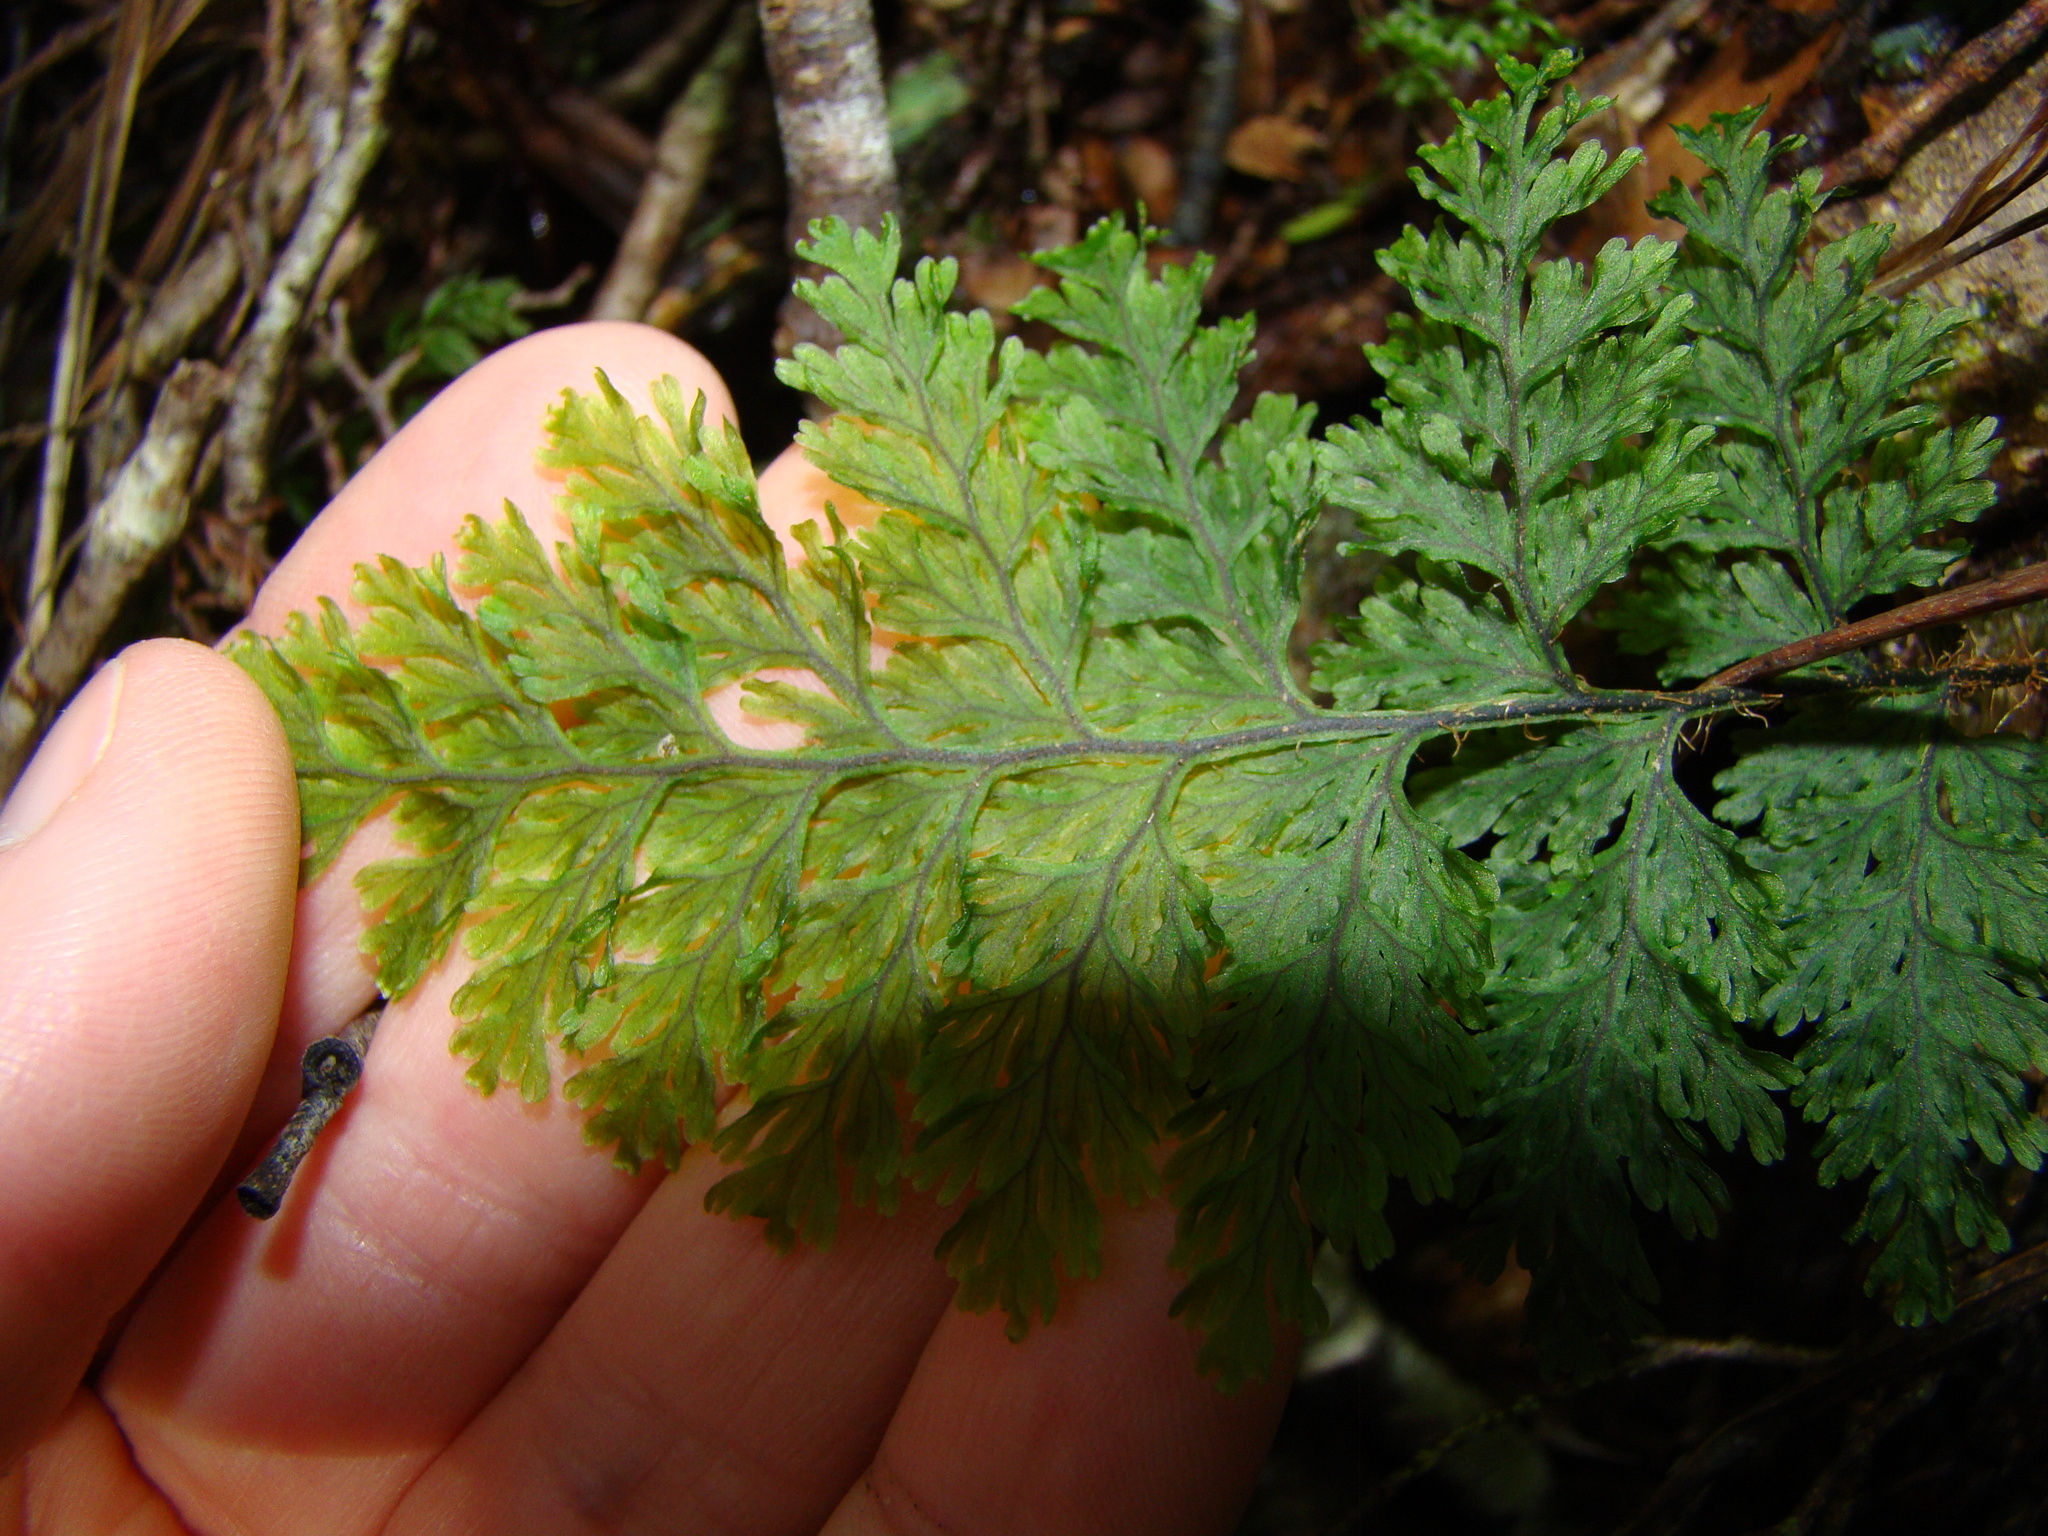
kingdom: Plantae
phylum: Tracheophyta
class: Polypodiopsida
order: Hymenophyllales
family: Hymenophyllaceae
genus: Hymenophyllum
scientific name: Hymenophyllum scabrum
